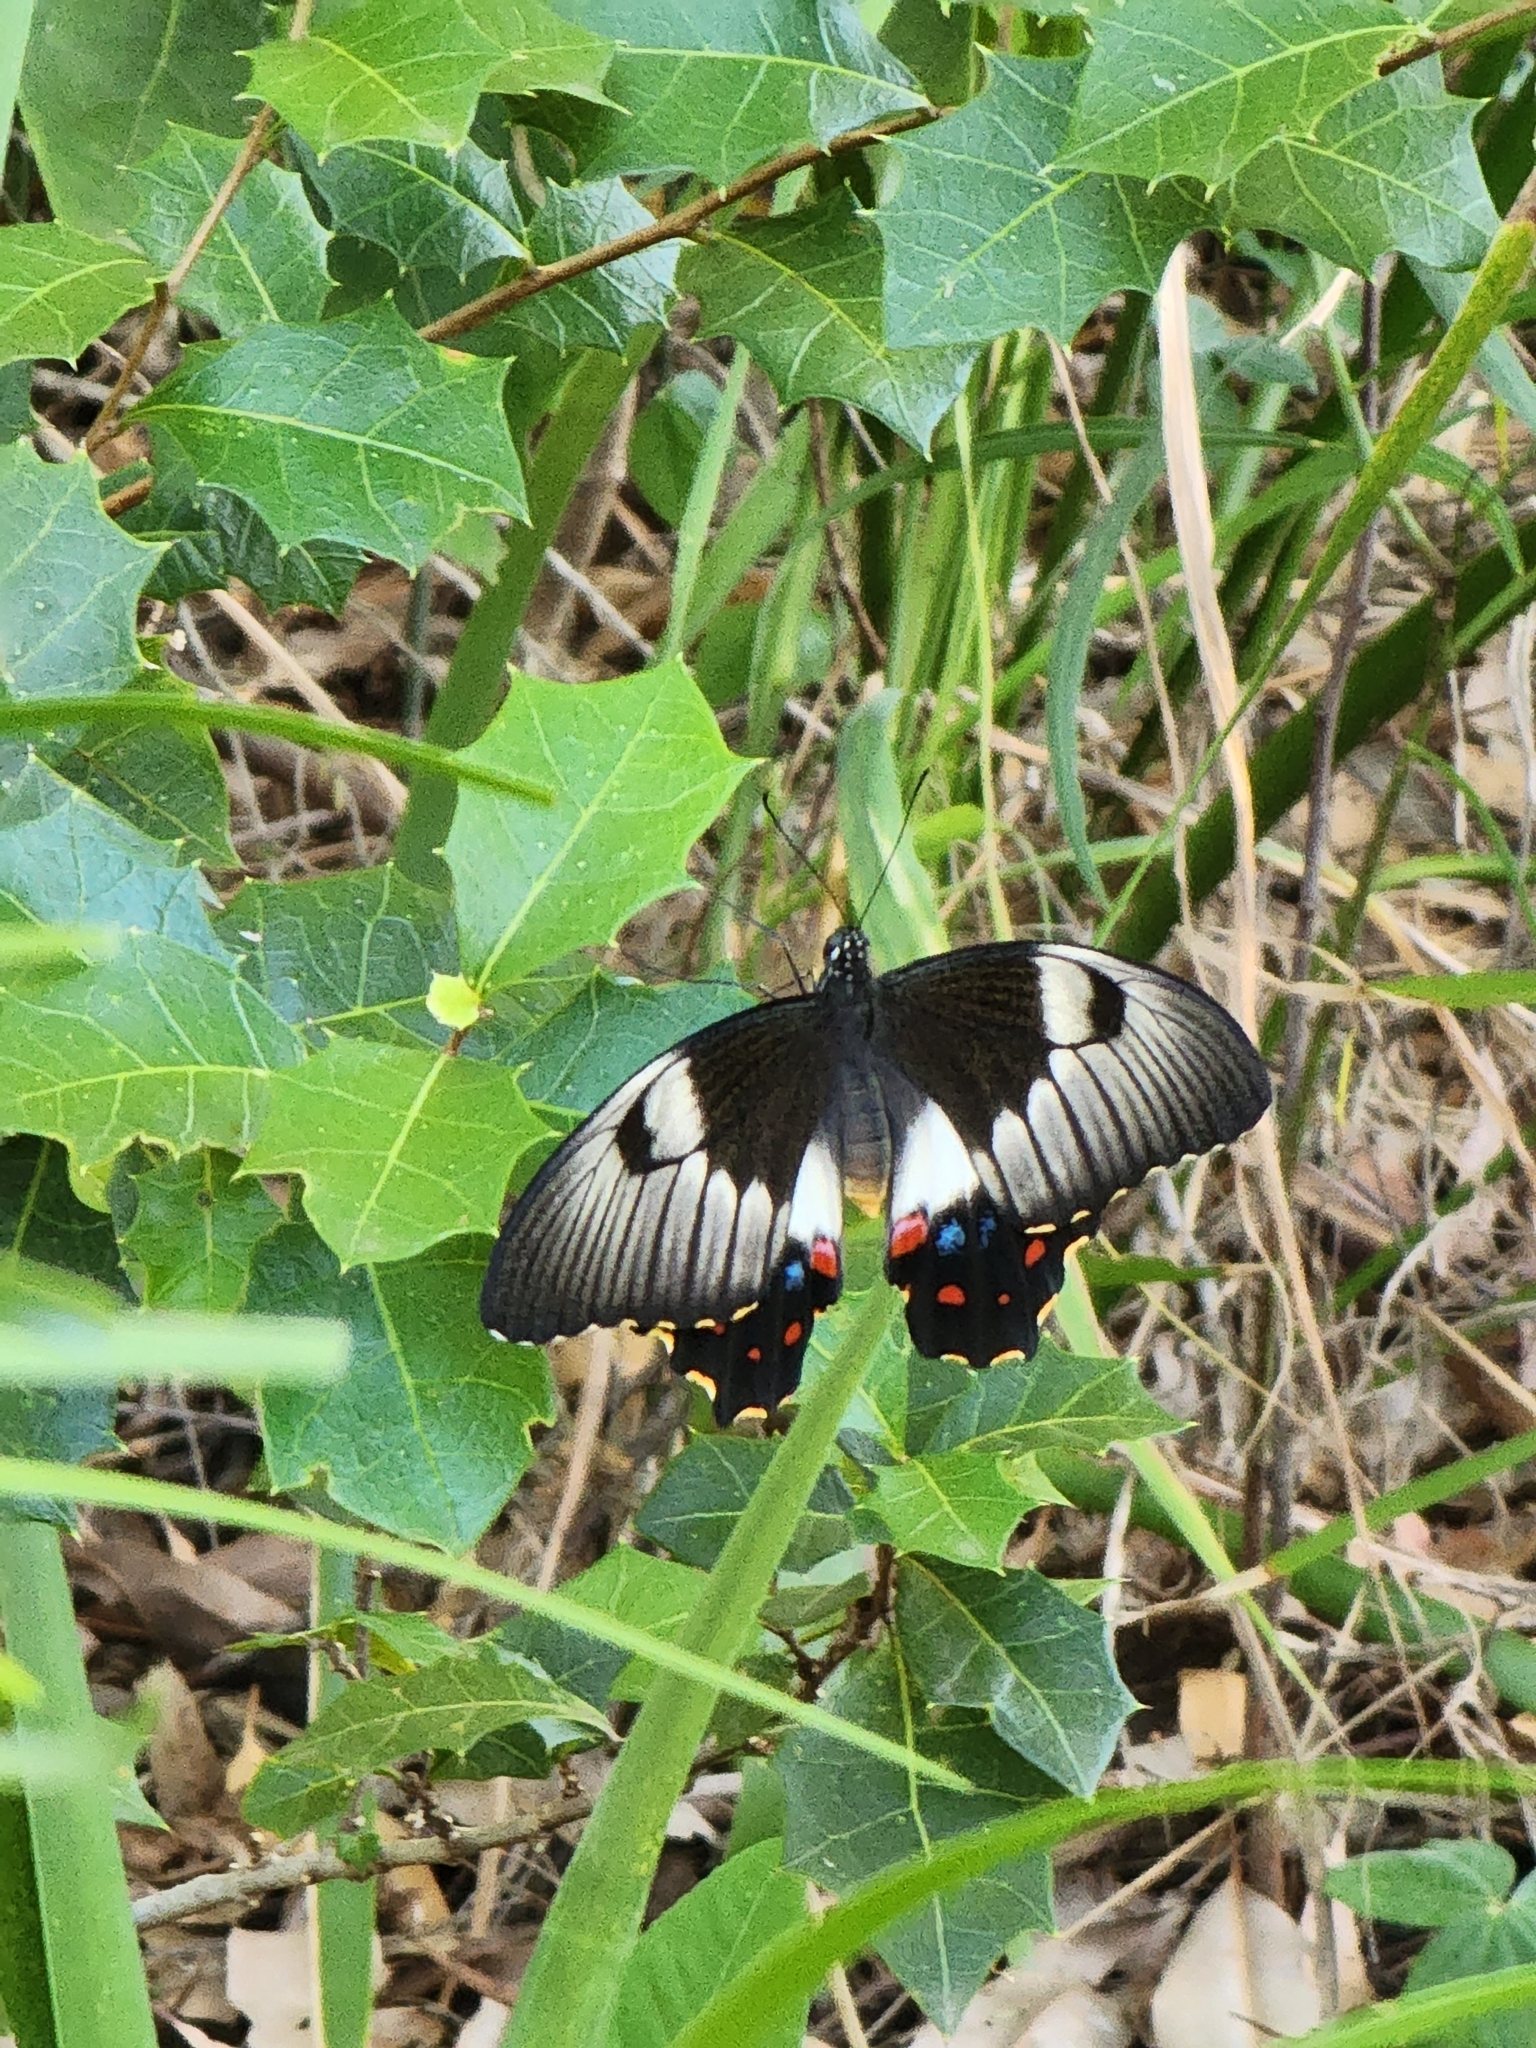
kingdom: Animalia
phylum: Arthropoda
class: Insecta
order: Lepidoptera
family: Papilionidae
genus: Papilio
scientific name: Papilio aegeus
